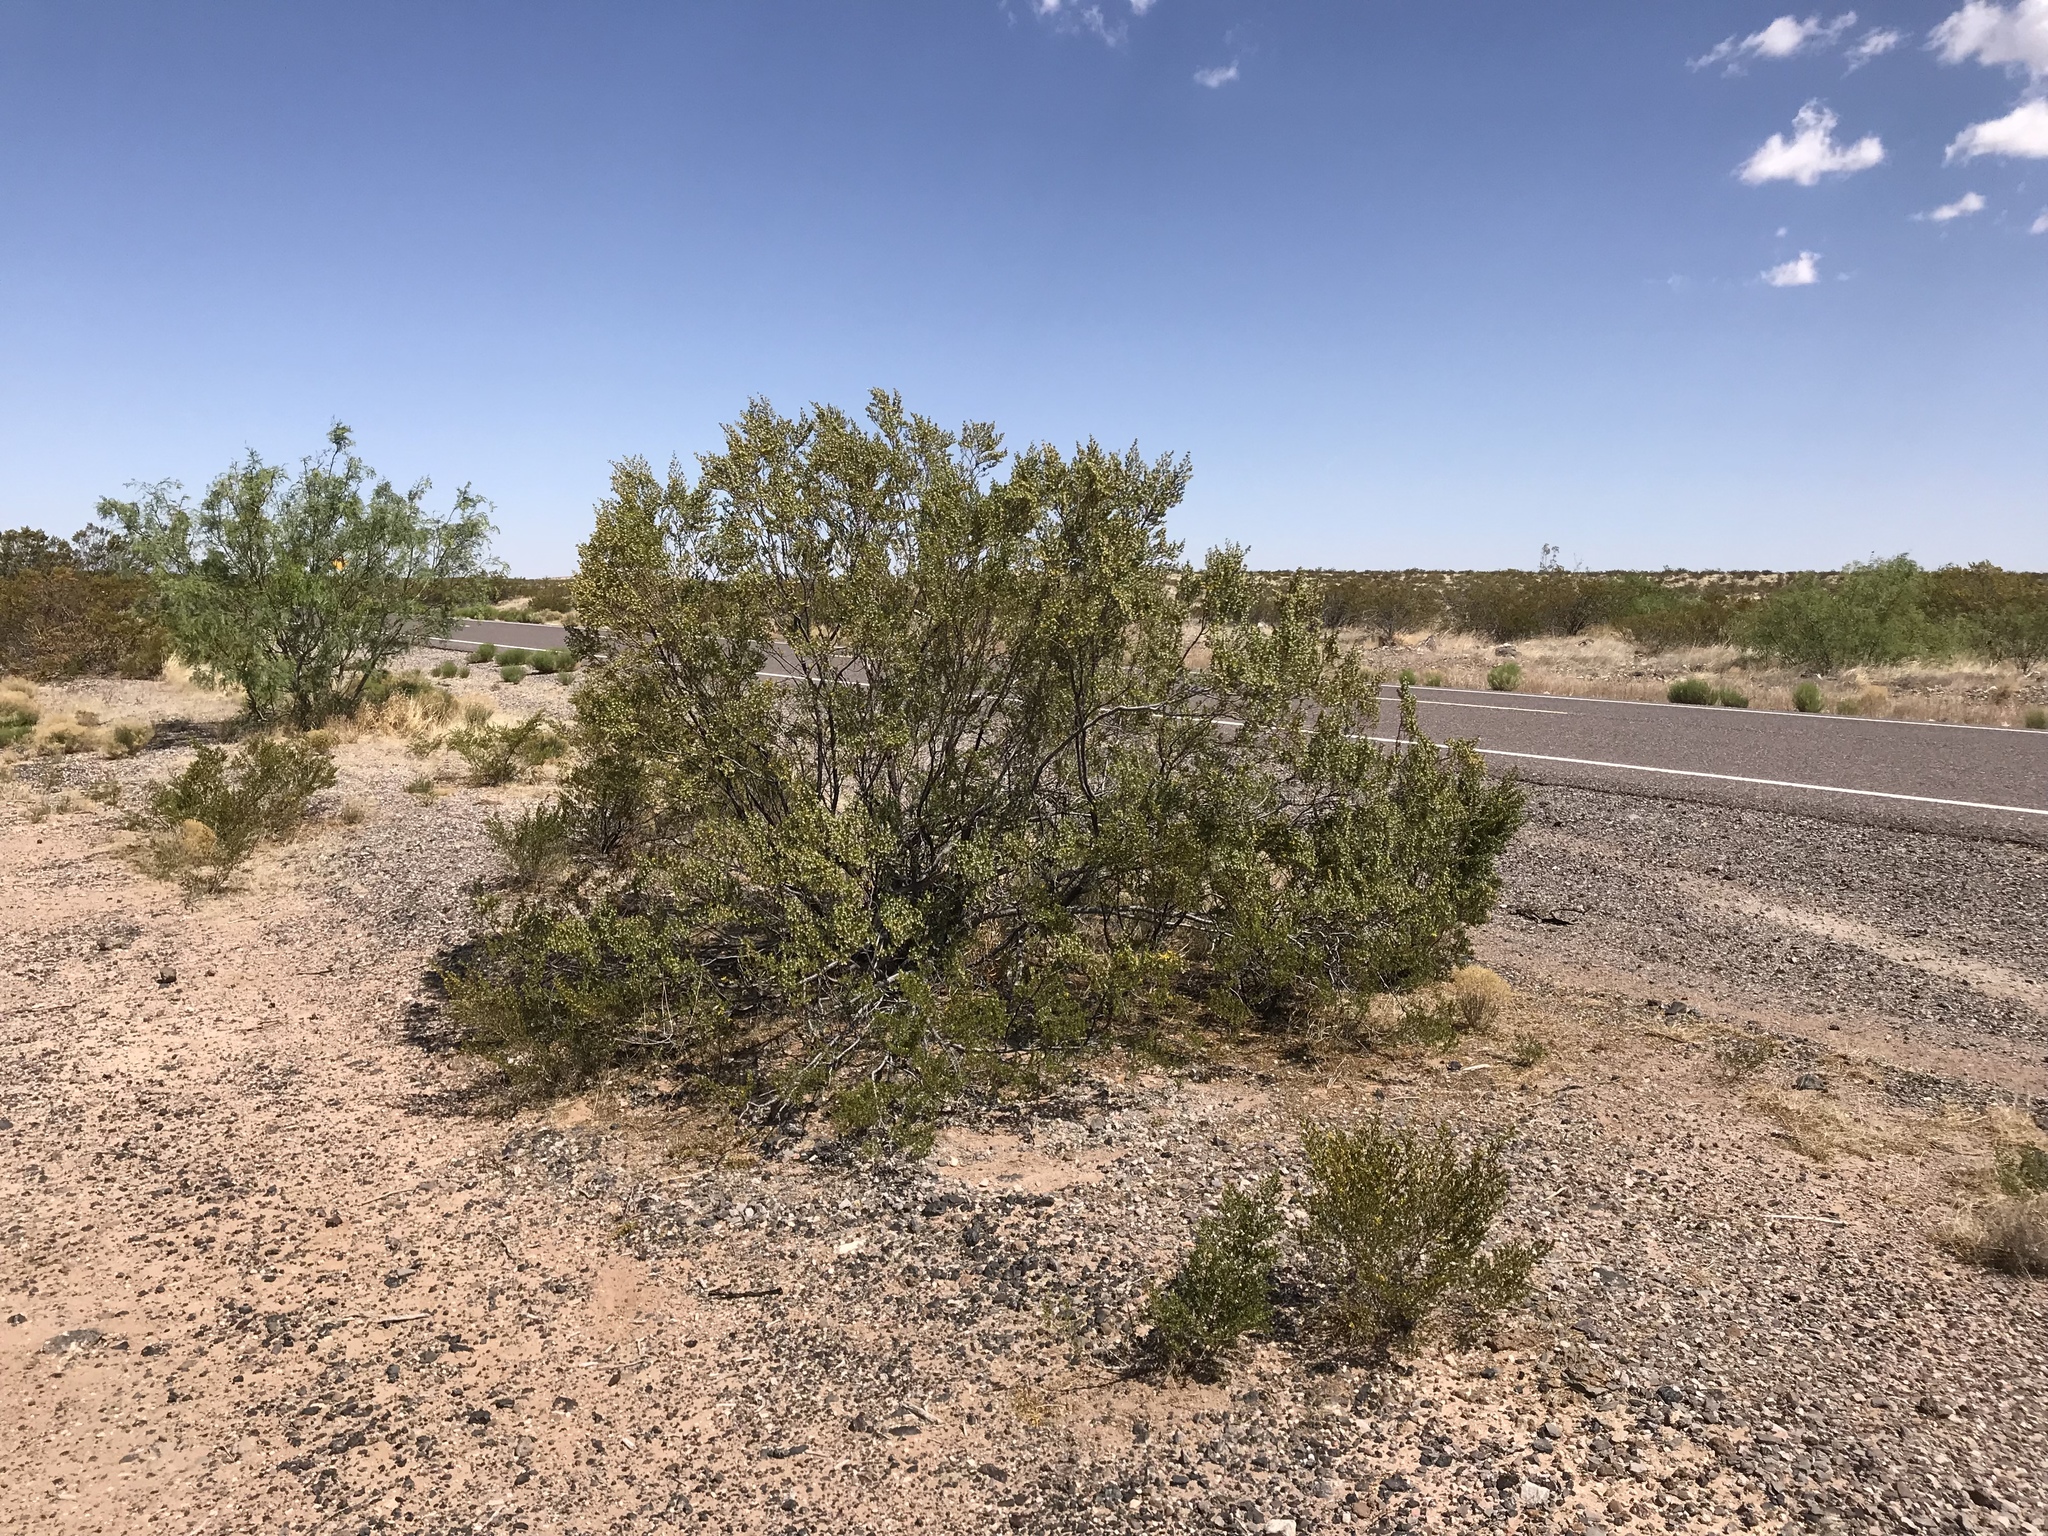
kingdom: Plantae
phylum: Tracheophyta
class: Magnoliopsida
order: Zygophyllales
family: Zygophyllaceae
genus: Larrea
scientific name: Larrea tridentata
